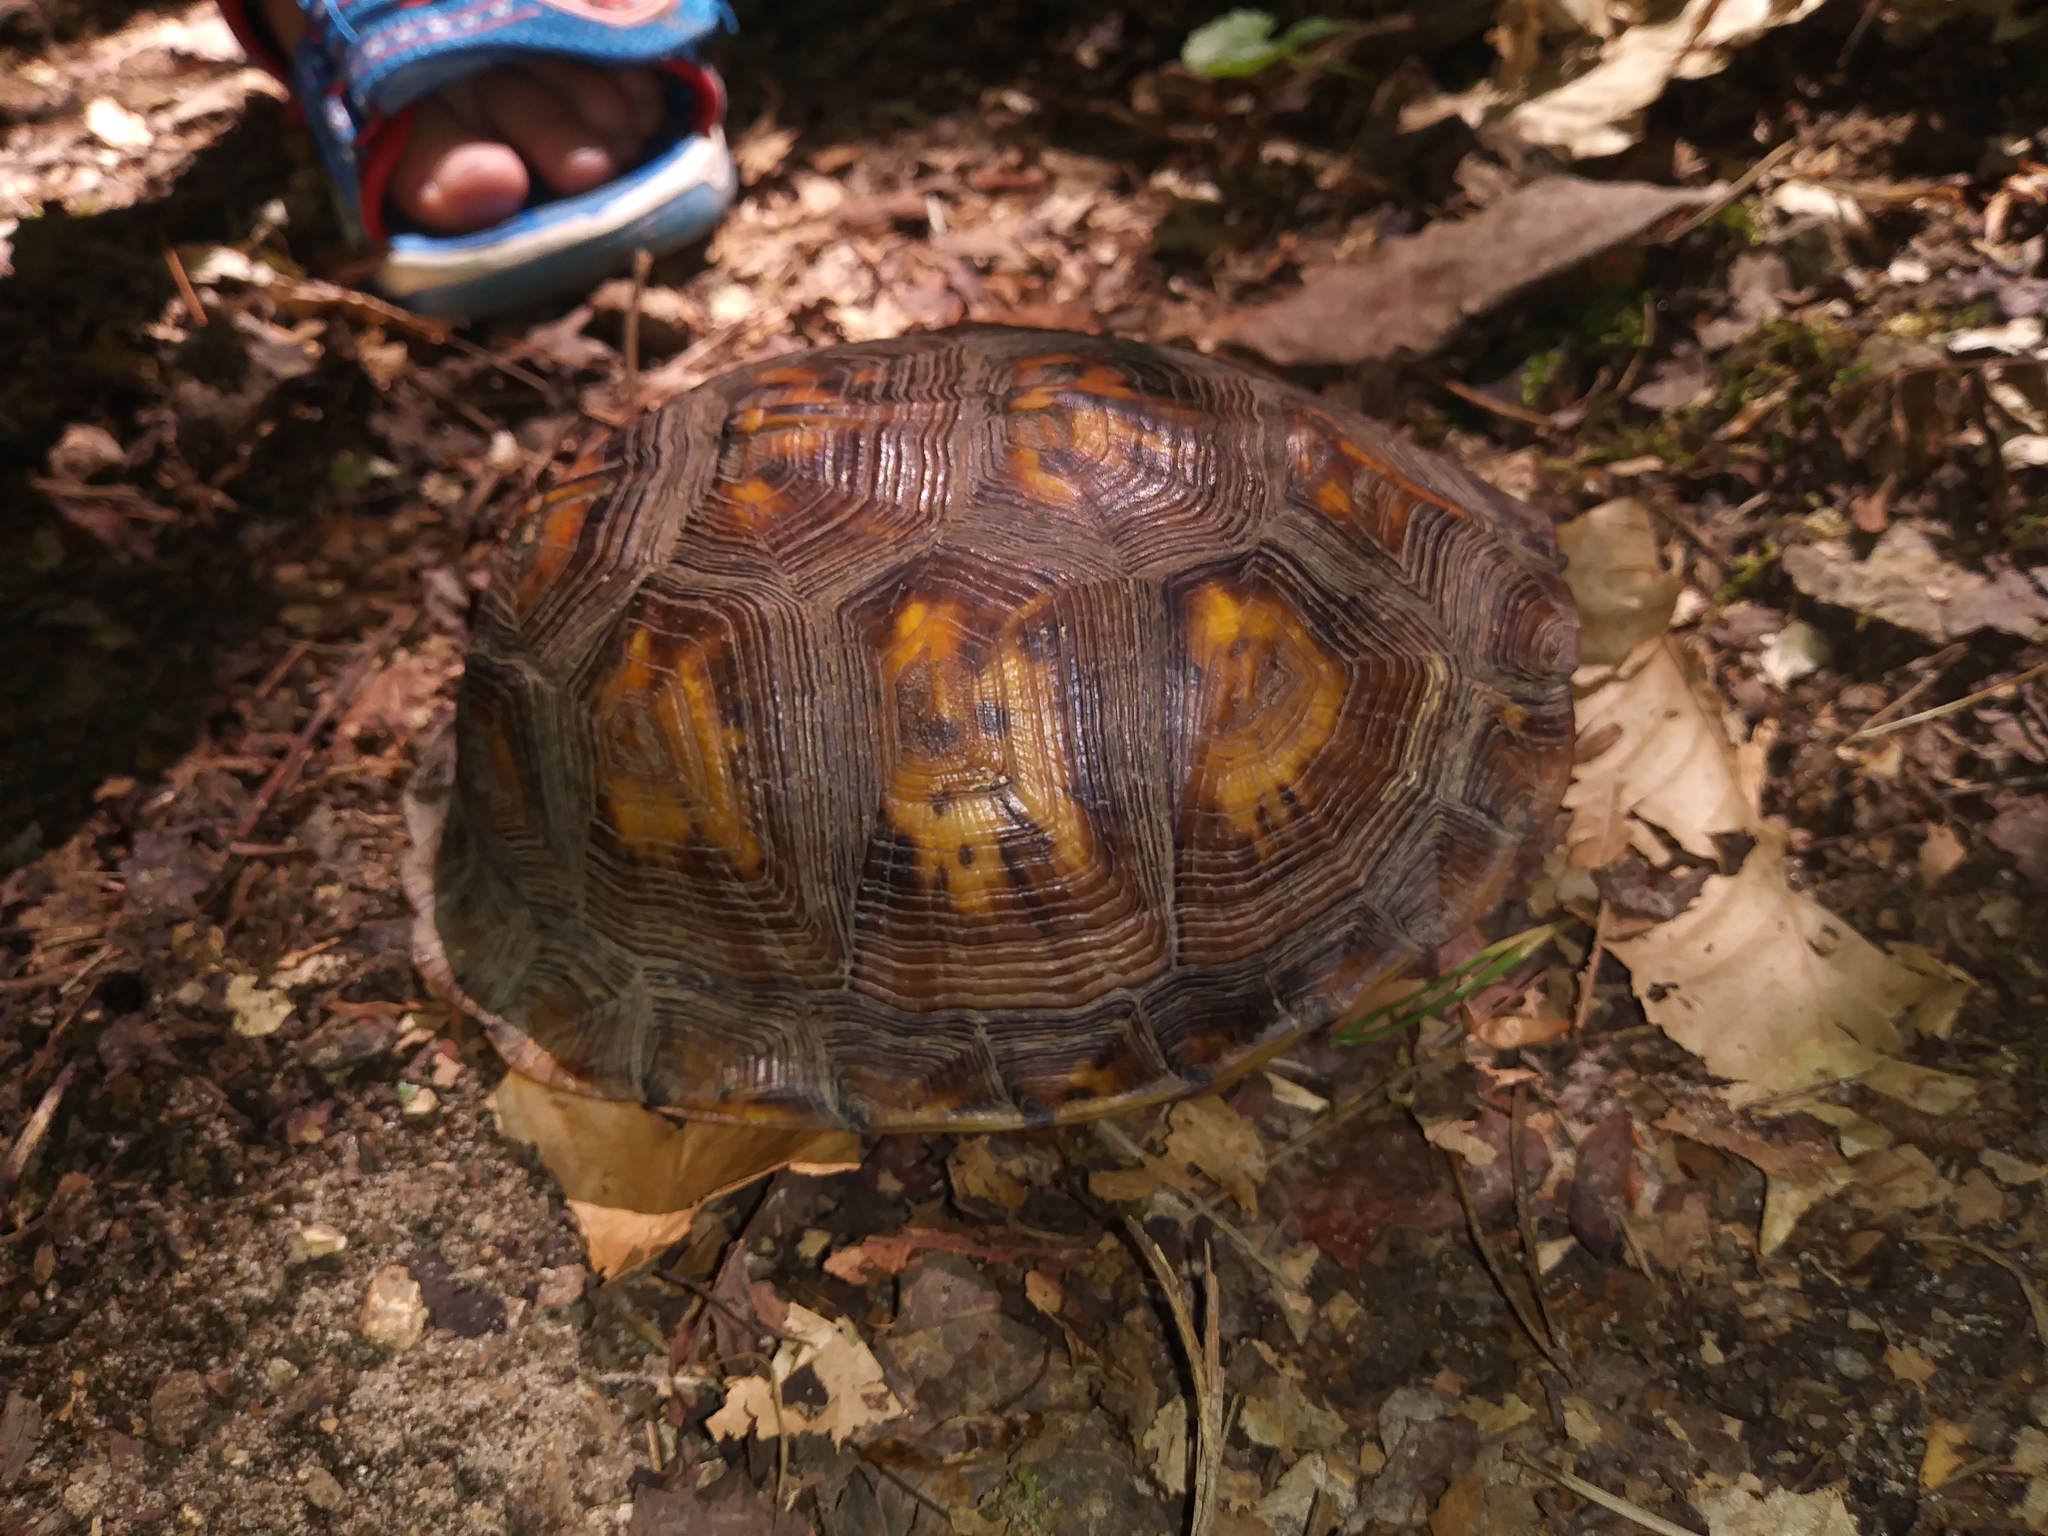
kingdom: Animalia
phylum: Chordata
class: Testudines
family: Emydidae
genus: Terrapene
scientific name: Terrapene carolina
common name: Common box turtle
